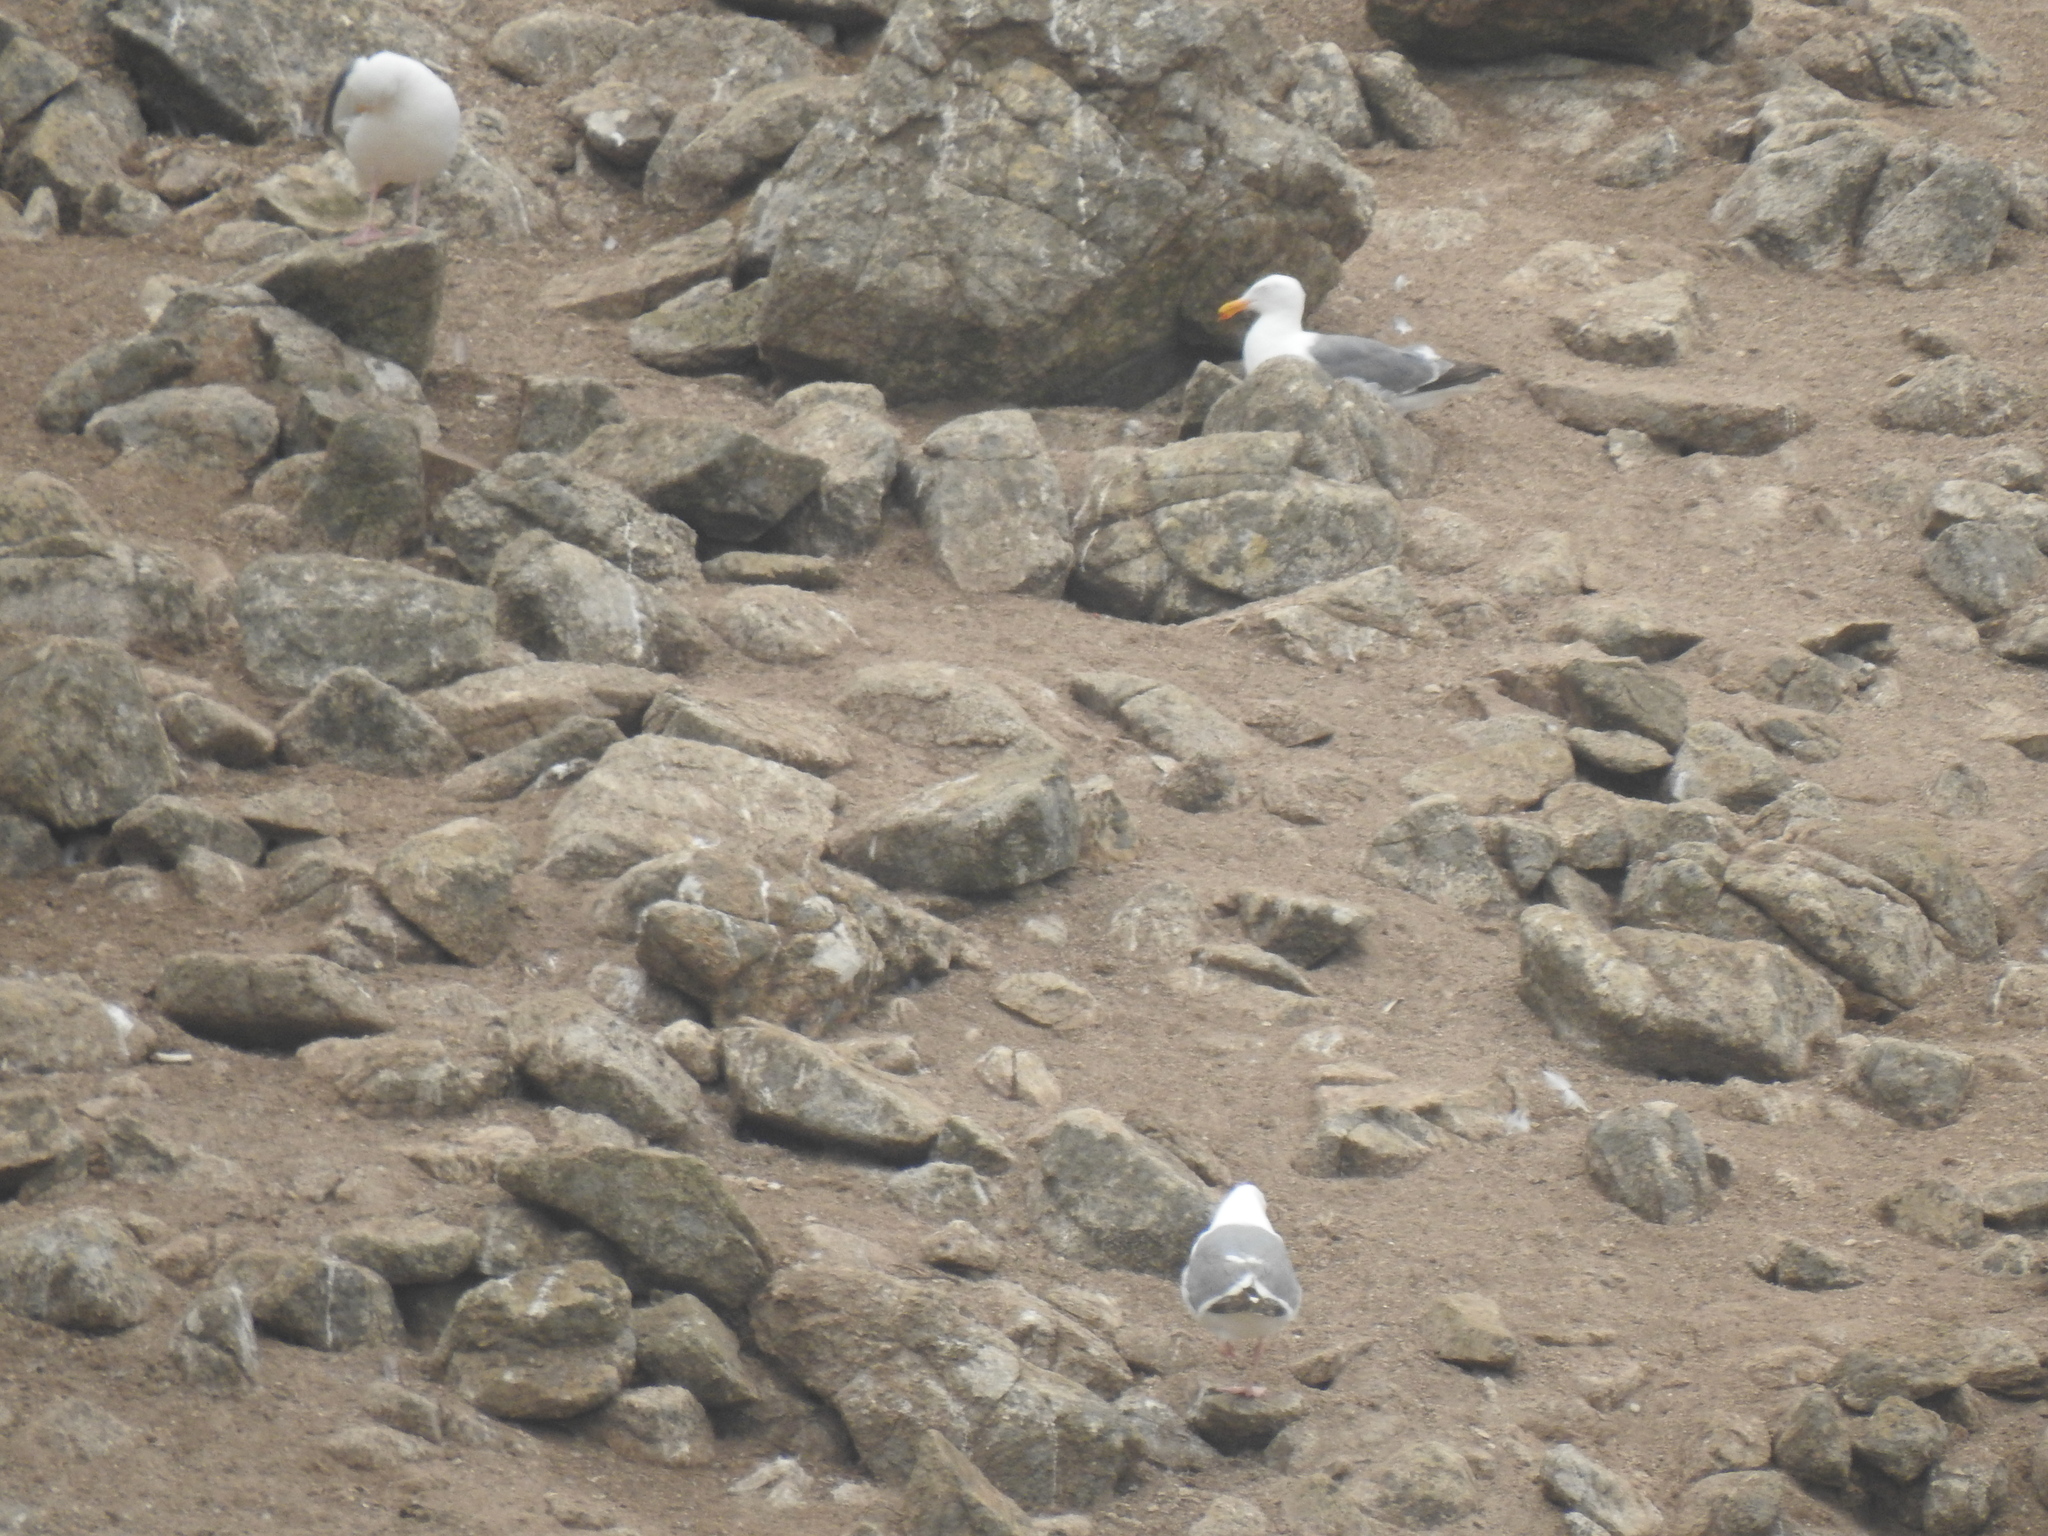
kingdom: Animalia
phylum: Chordata
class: Aves
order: Charadriiformes
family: Laridae
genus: Larus
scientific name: Larus occidentalis
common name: Western gull
